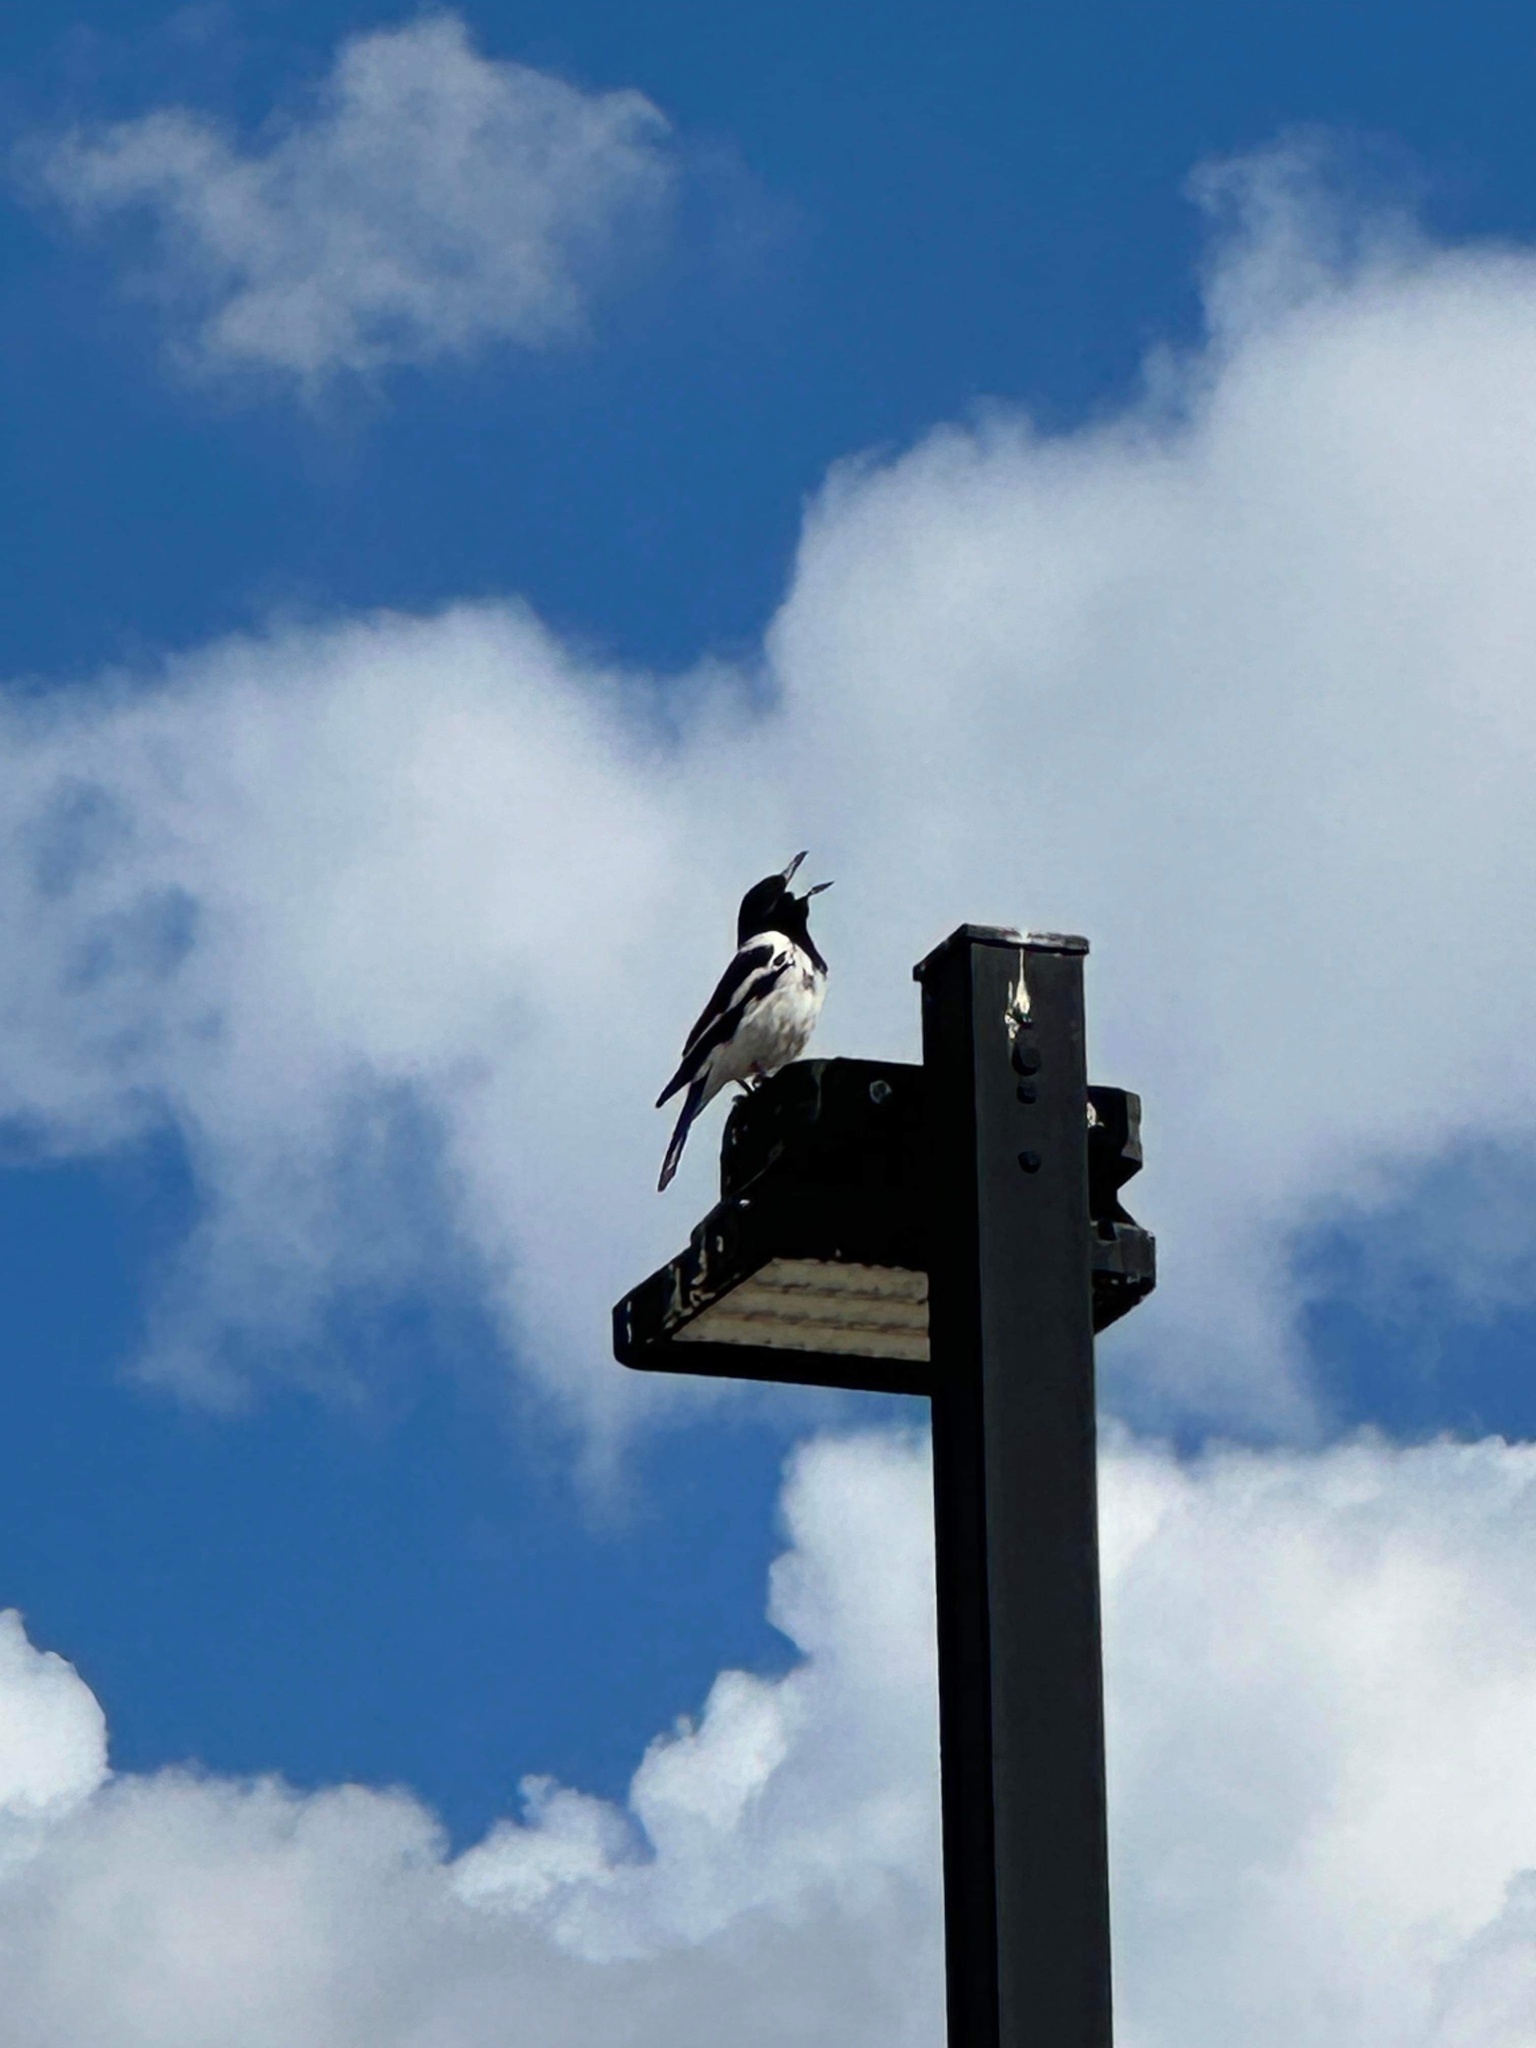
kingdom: Animalia
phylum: Chordata
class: Aves
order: Passeriformes
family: Cracticidae
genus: Cracticus
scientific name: Cracticus nigrogularis
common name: Pied butcherbird
